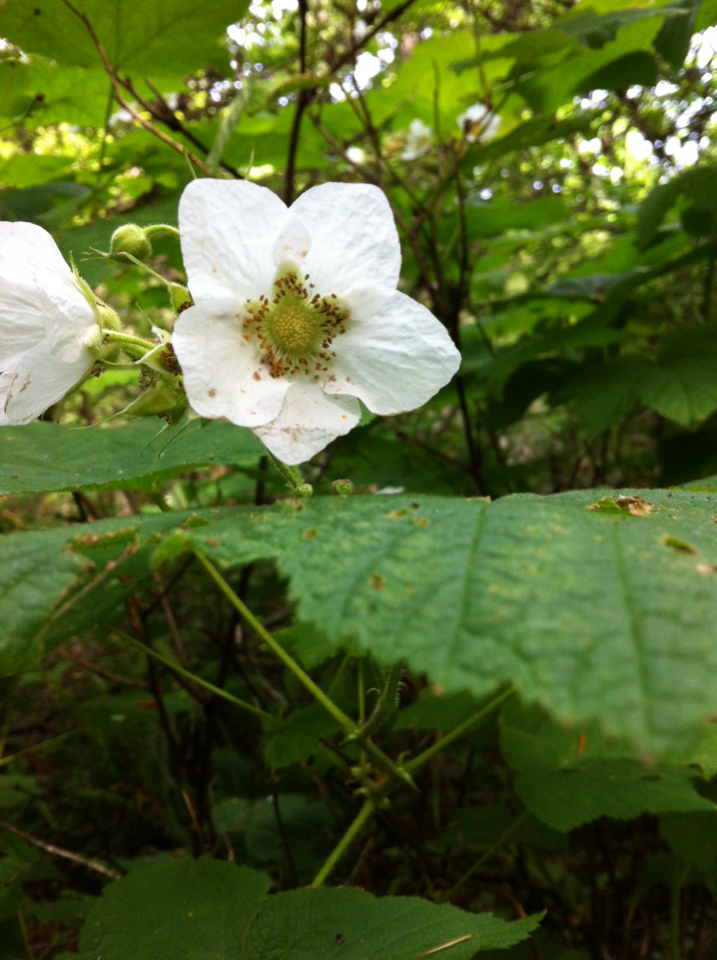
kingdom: Plantae
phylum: Tracheophyta
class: Magnoliopsida
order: Rosales
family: Rosaceae
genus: Rubus
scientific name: Rubus parviflorus
